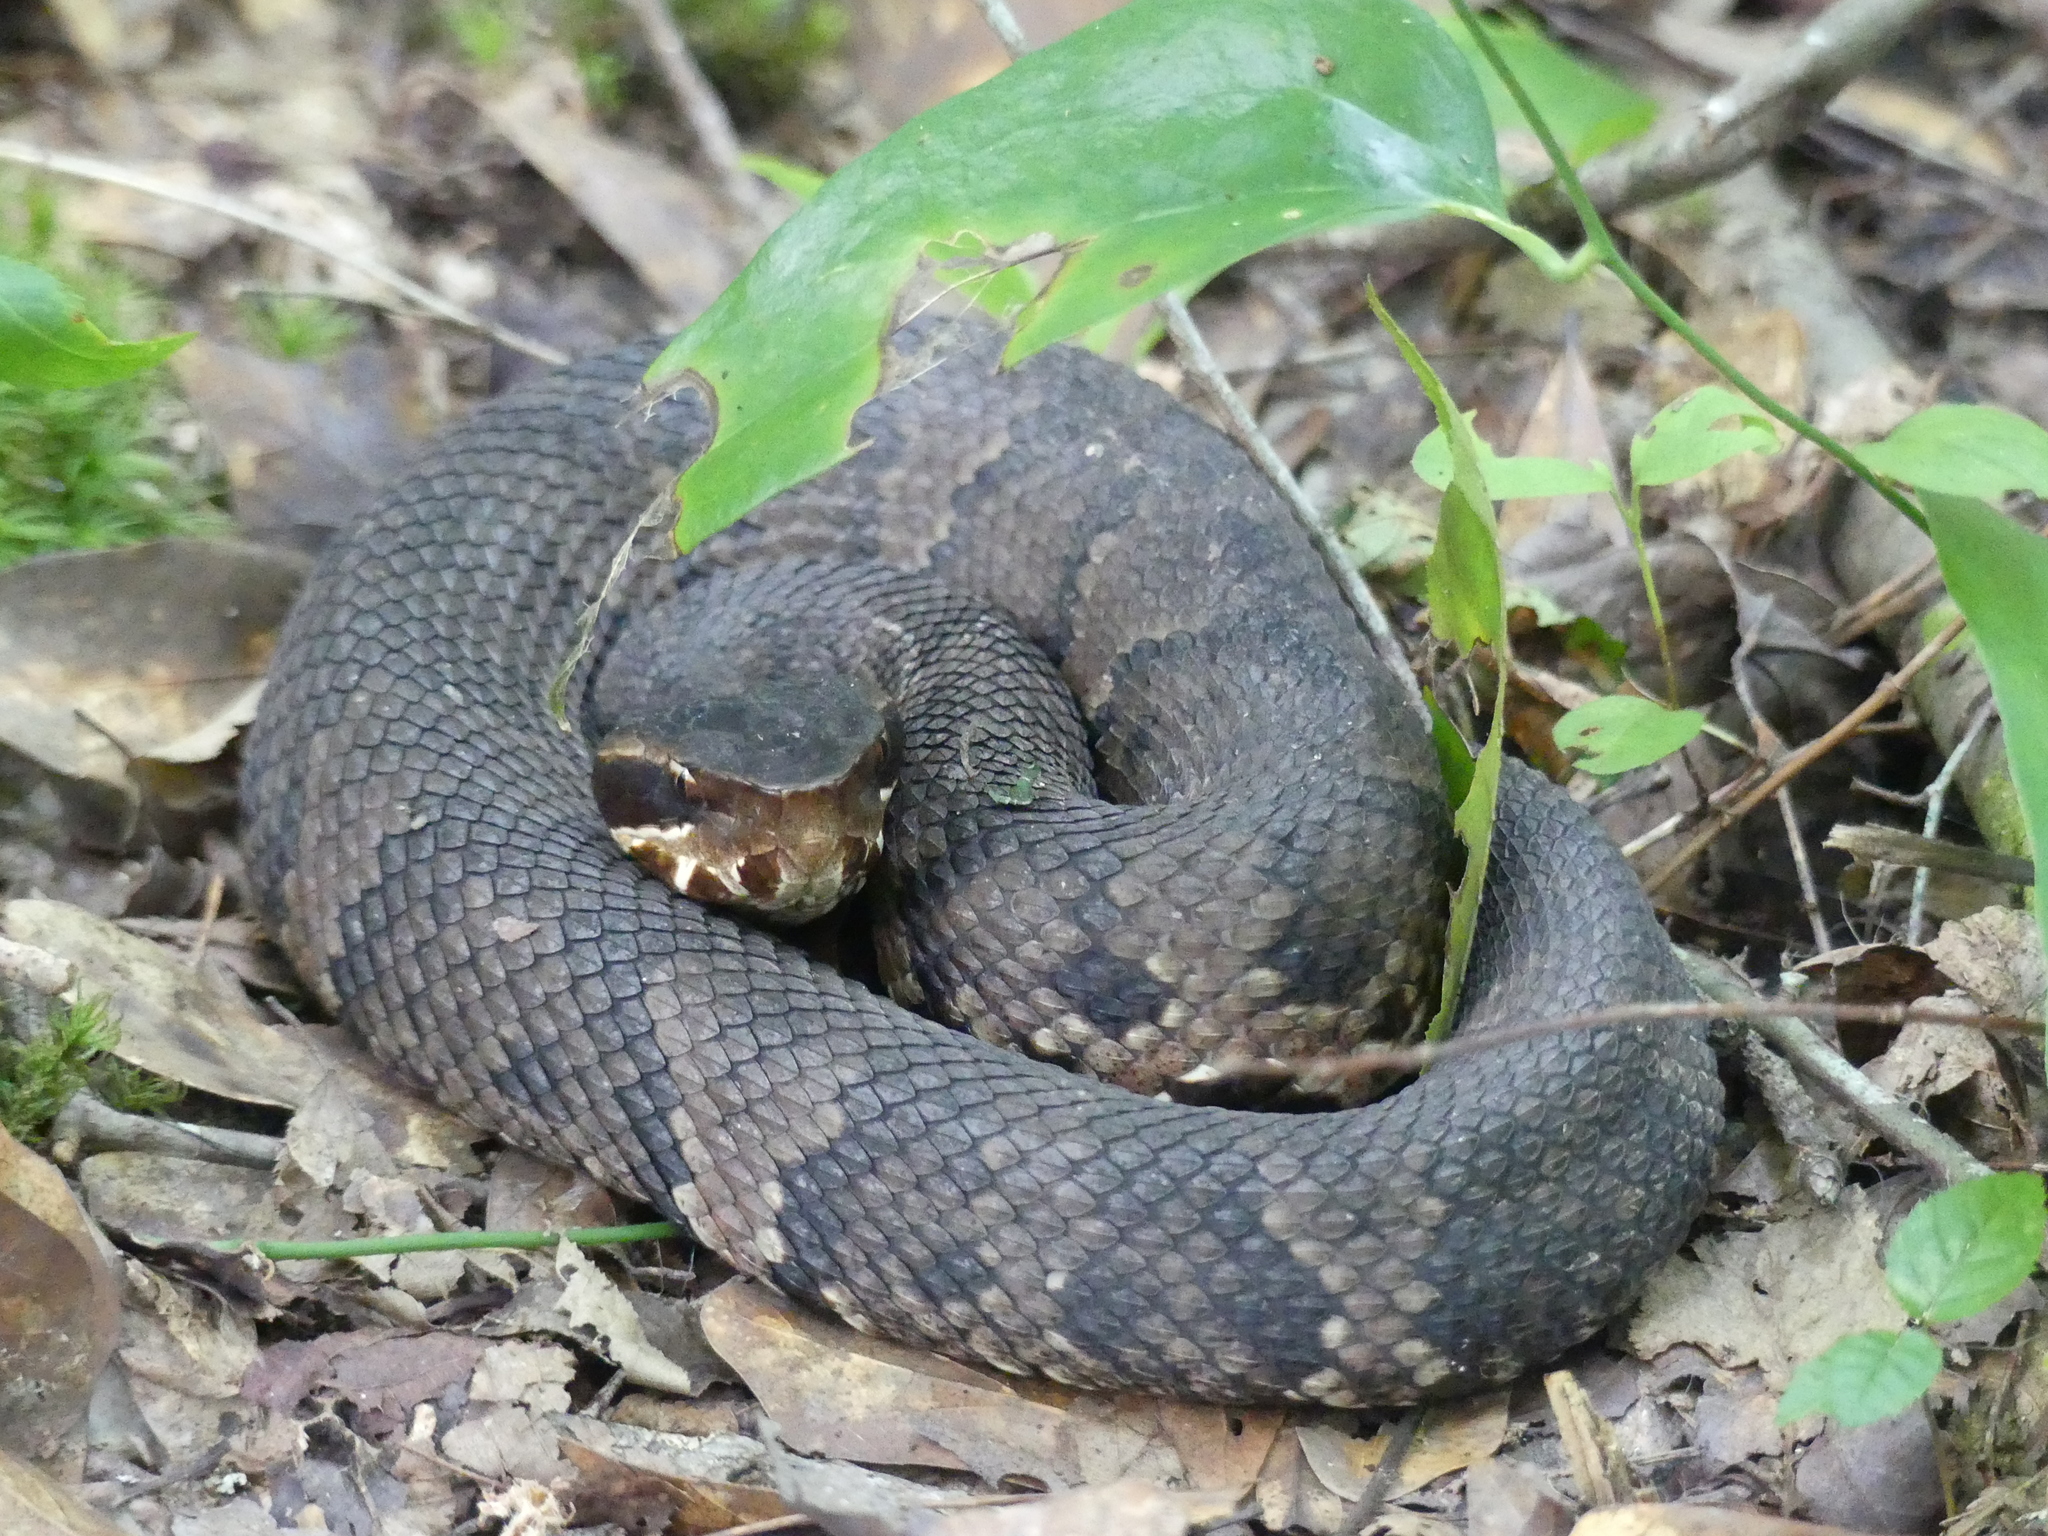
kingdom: Animalia
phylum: Chordata
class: Squamata
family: Viperidae
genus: Agkistrodon
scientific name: Agkistrodon piscivorus
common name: Cottonmouth
